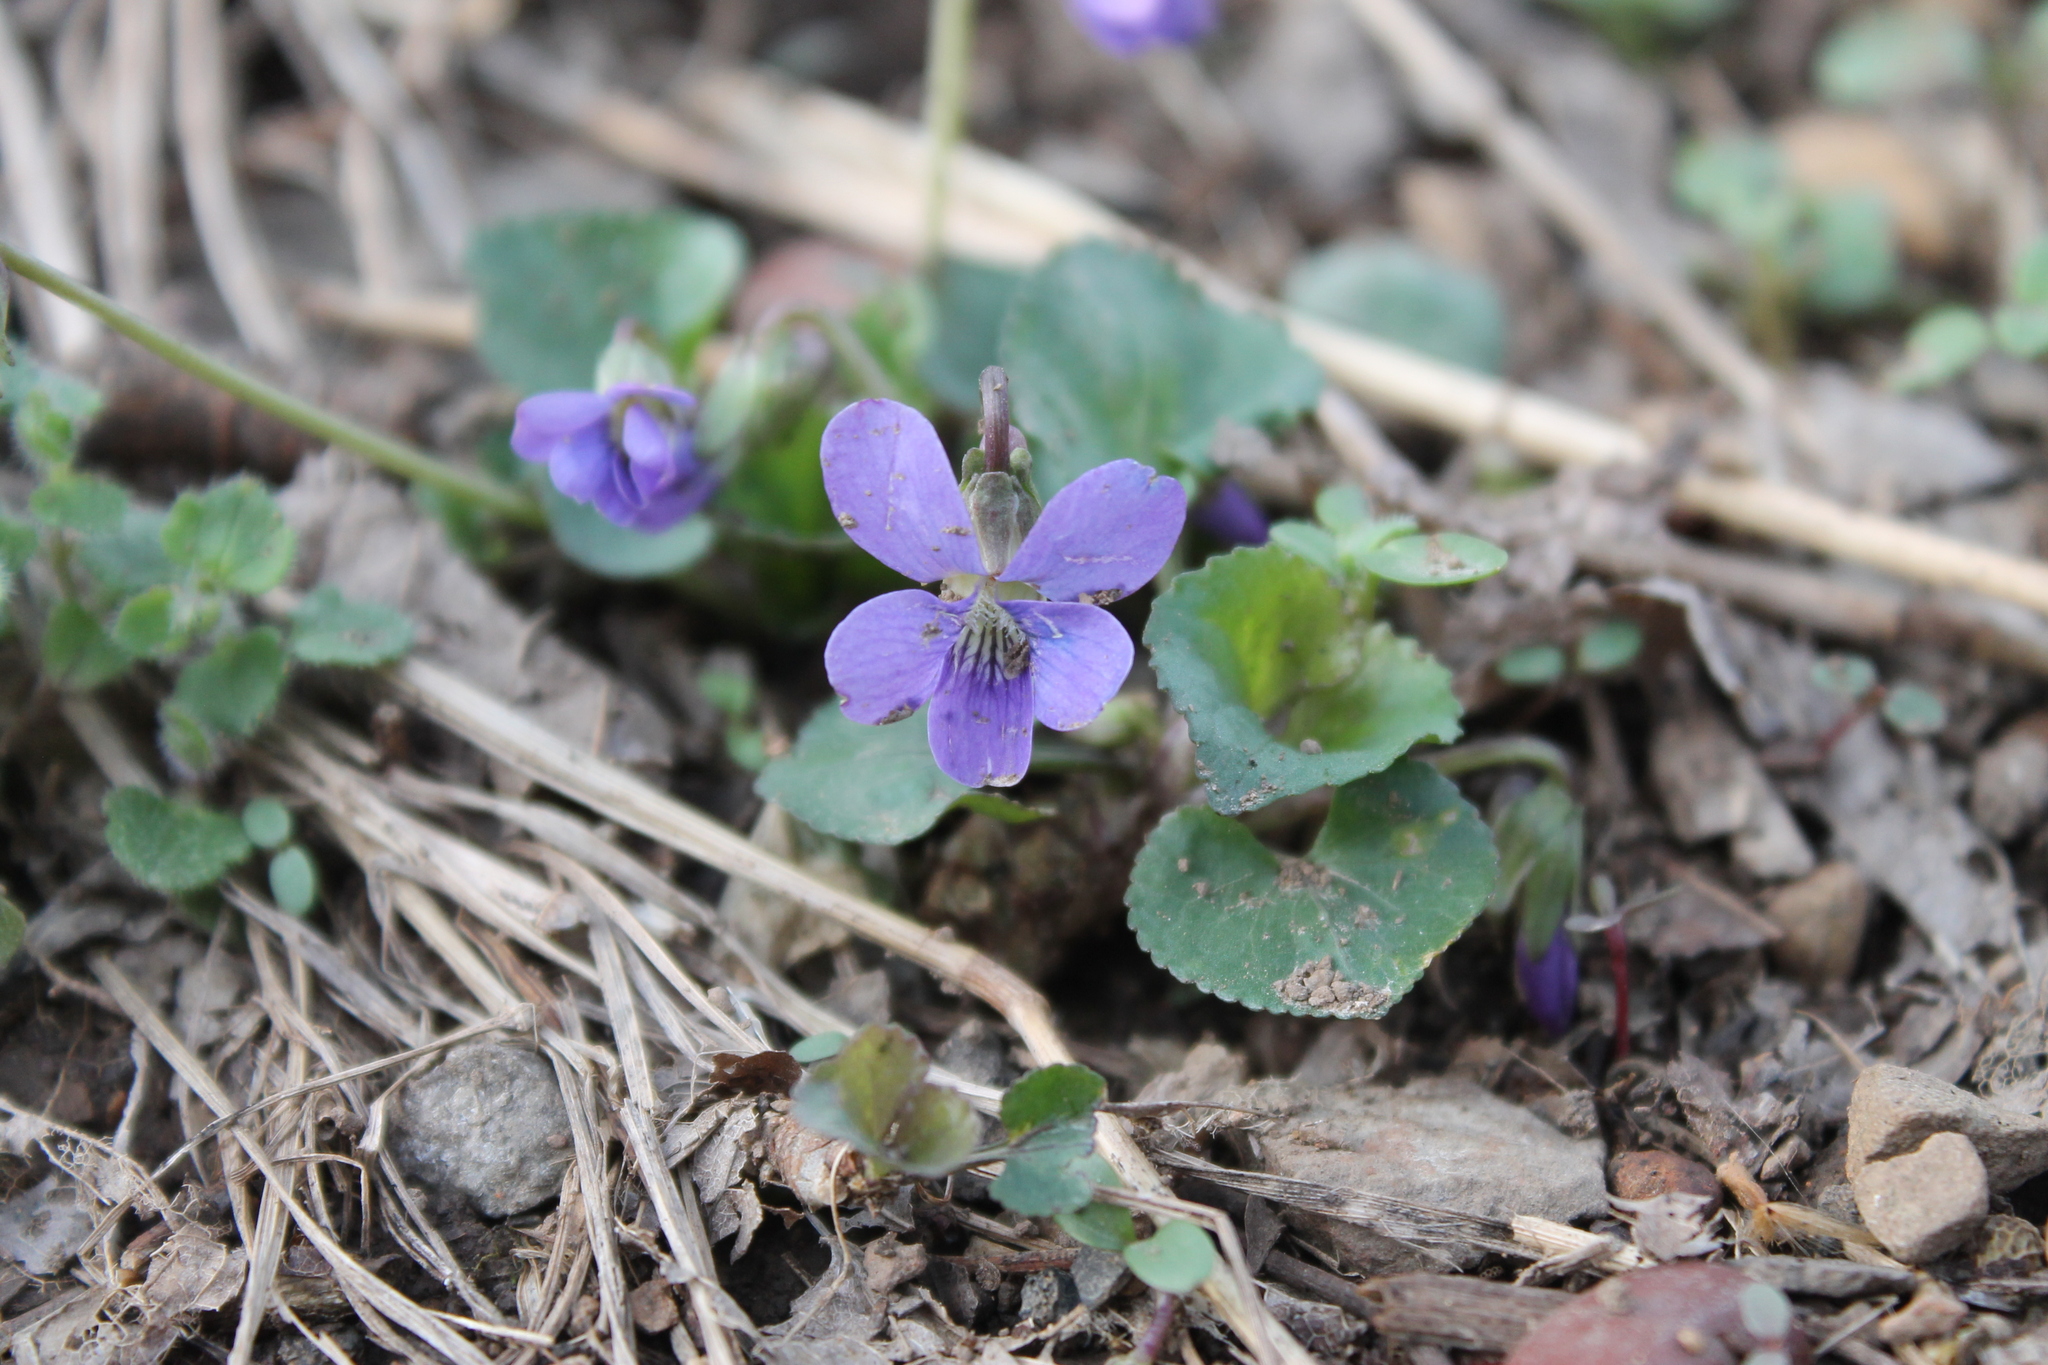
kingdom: Plantae
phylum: Tracheophyta
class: Magnoliopsida
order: Malpighiales
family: Violaceae
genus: Viola
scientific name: Viola sororia
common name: Dooryard violet
